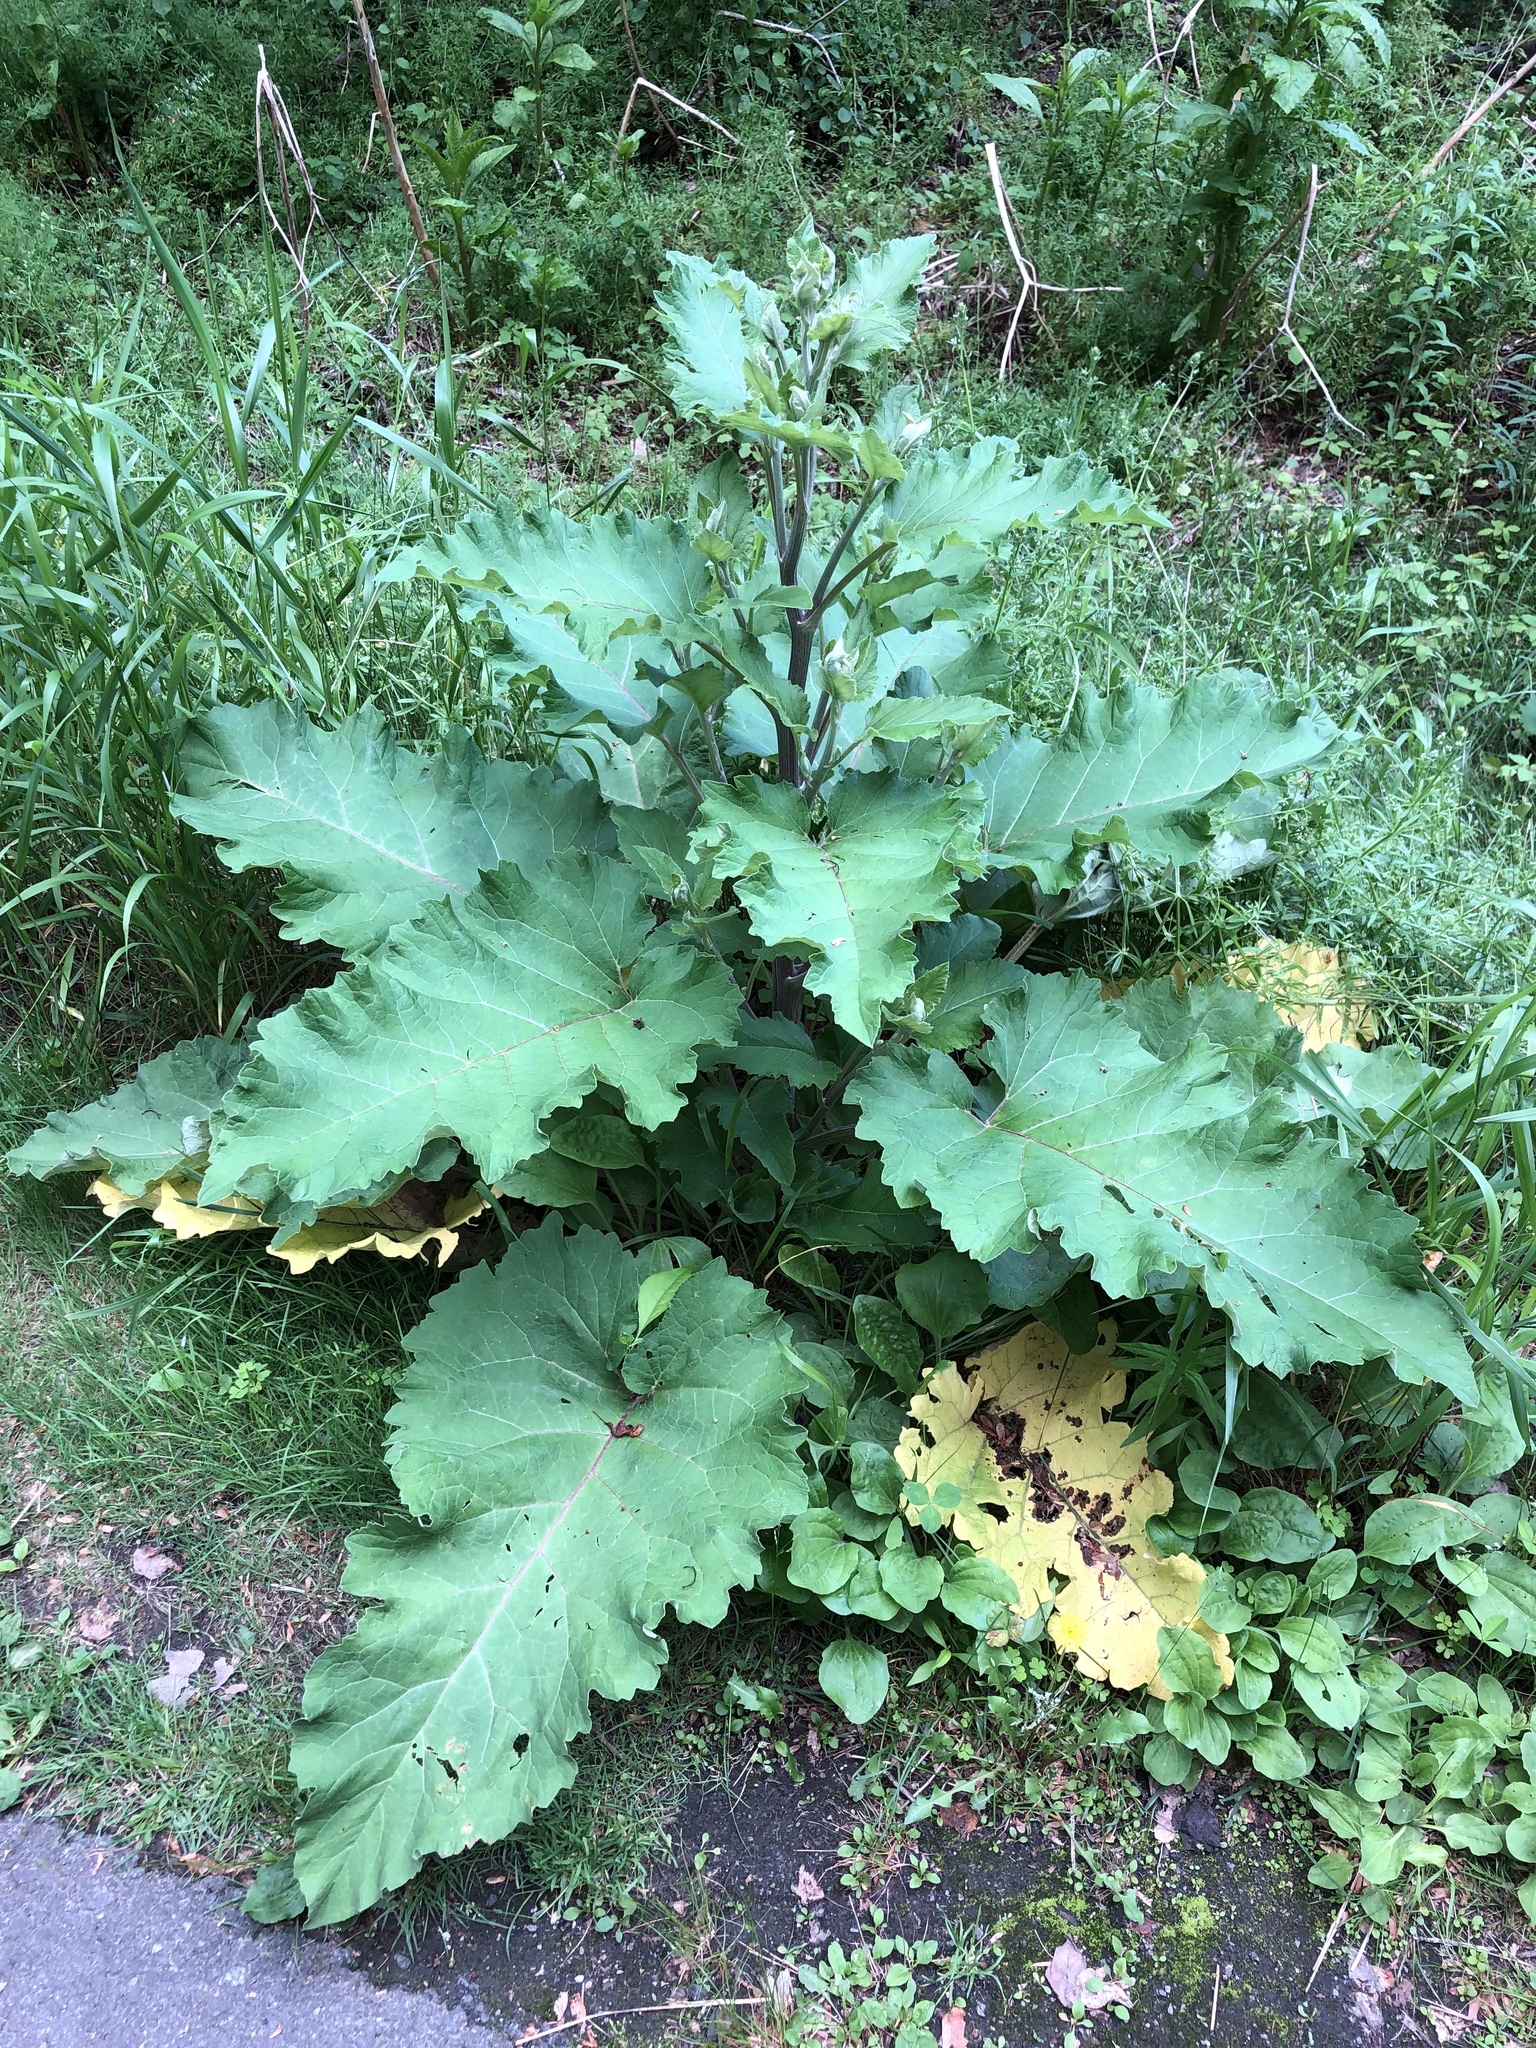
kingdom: Plantae
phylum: Tracheophyta
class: Magnoliopsida
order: Asterales
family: Asteraceae
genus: Arctium
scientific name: Arctium
